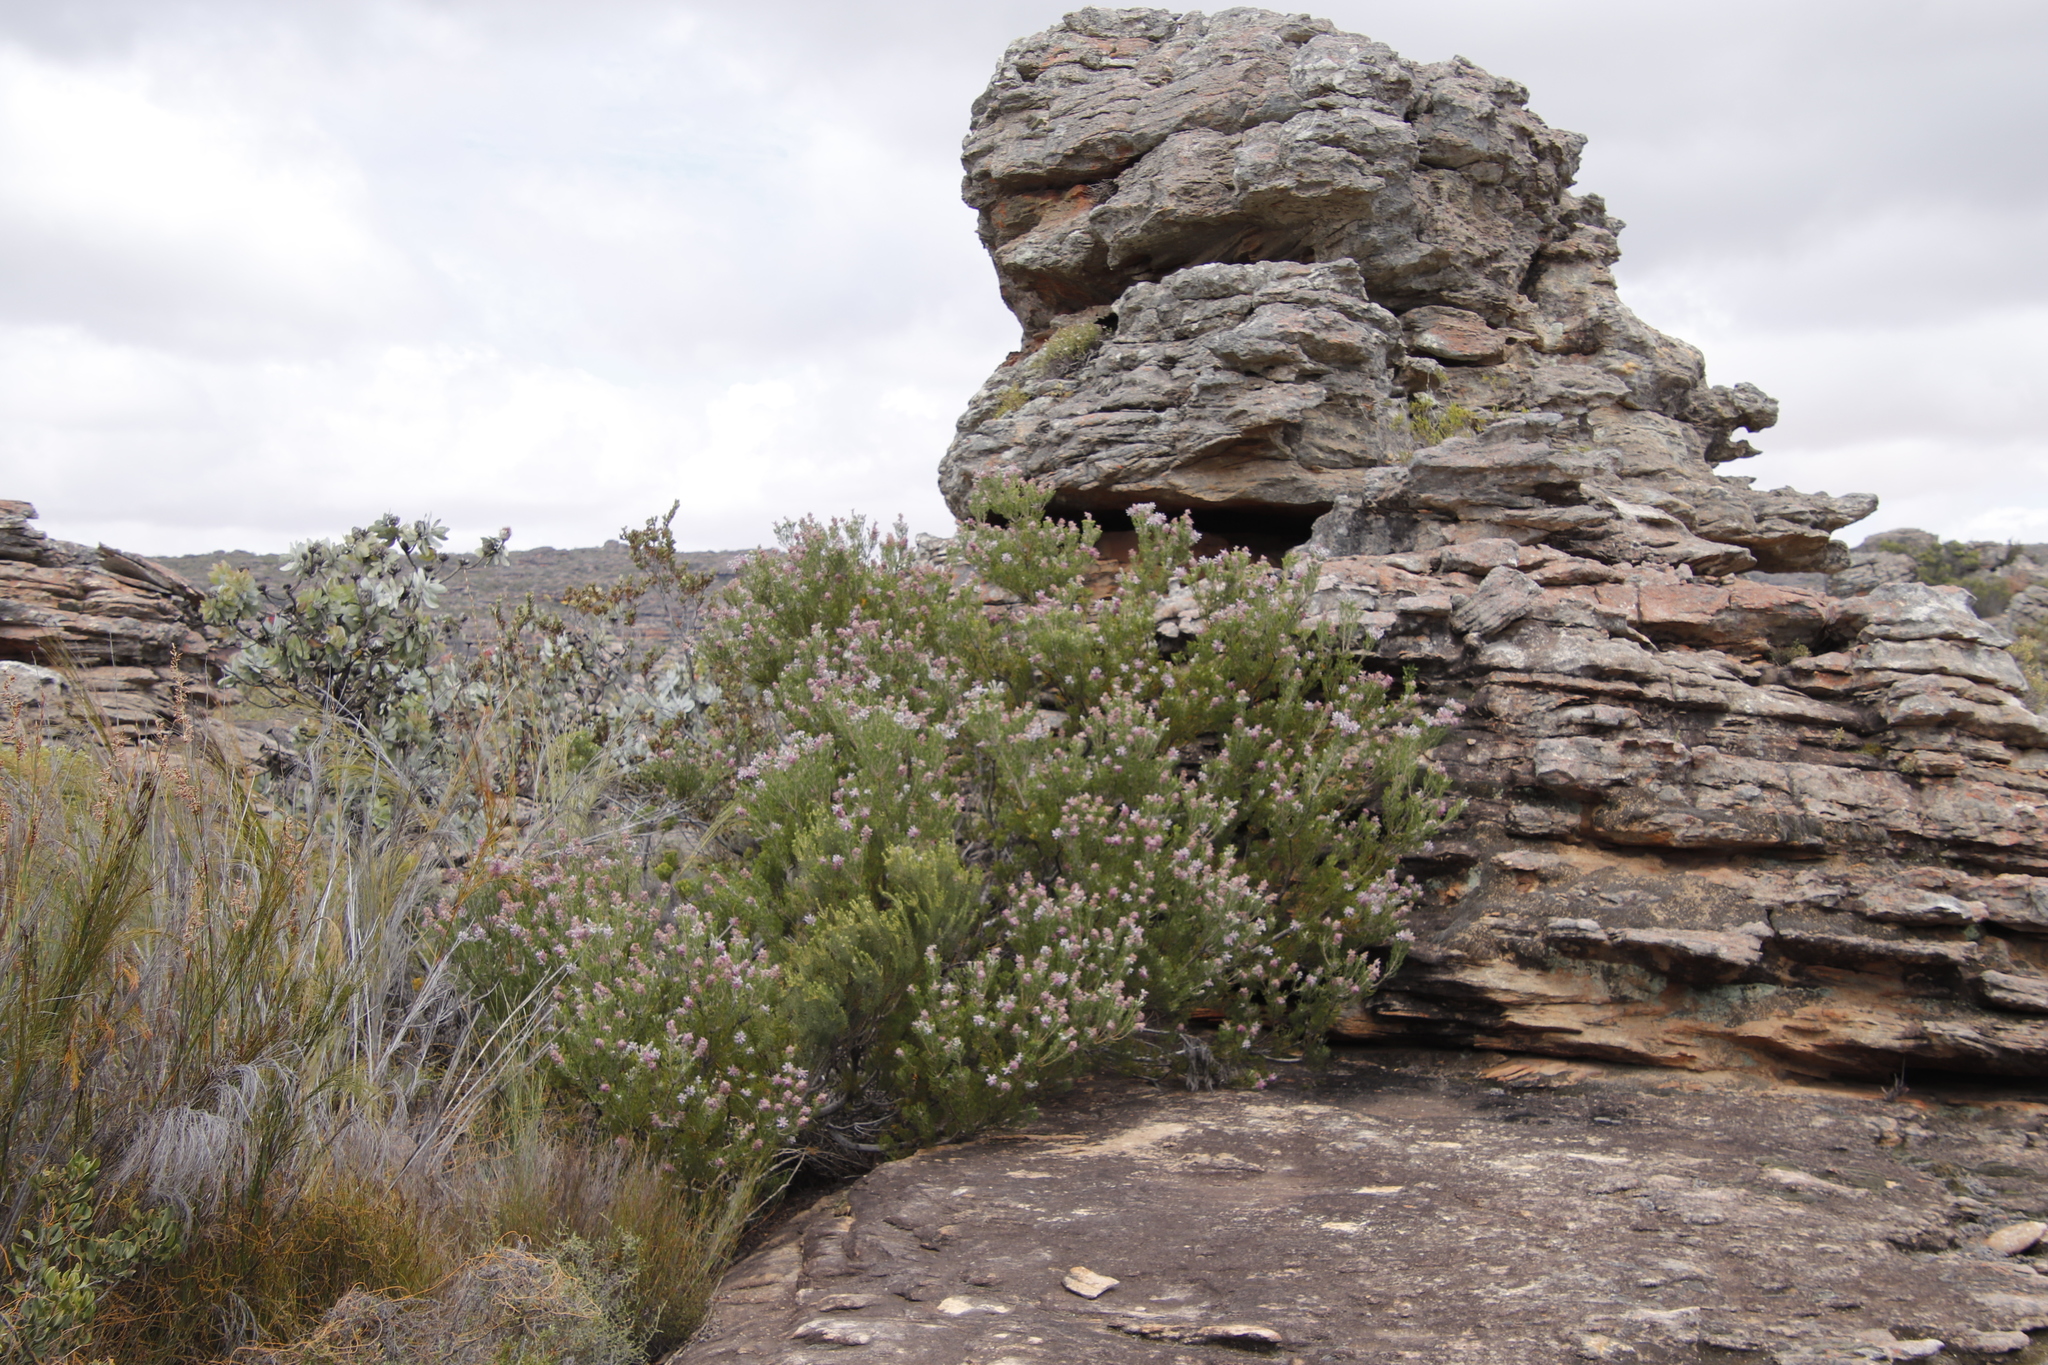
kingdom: Plantae
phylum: Tracheophyta
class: Magnoliopsida
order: Proteales
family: Proteaceae
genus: Paranomus
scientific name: Paranomus bracteolaris
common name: Bokkeveld tree sceptre
